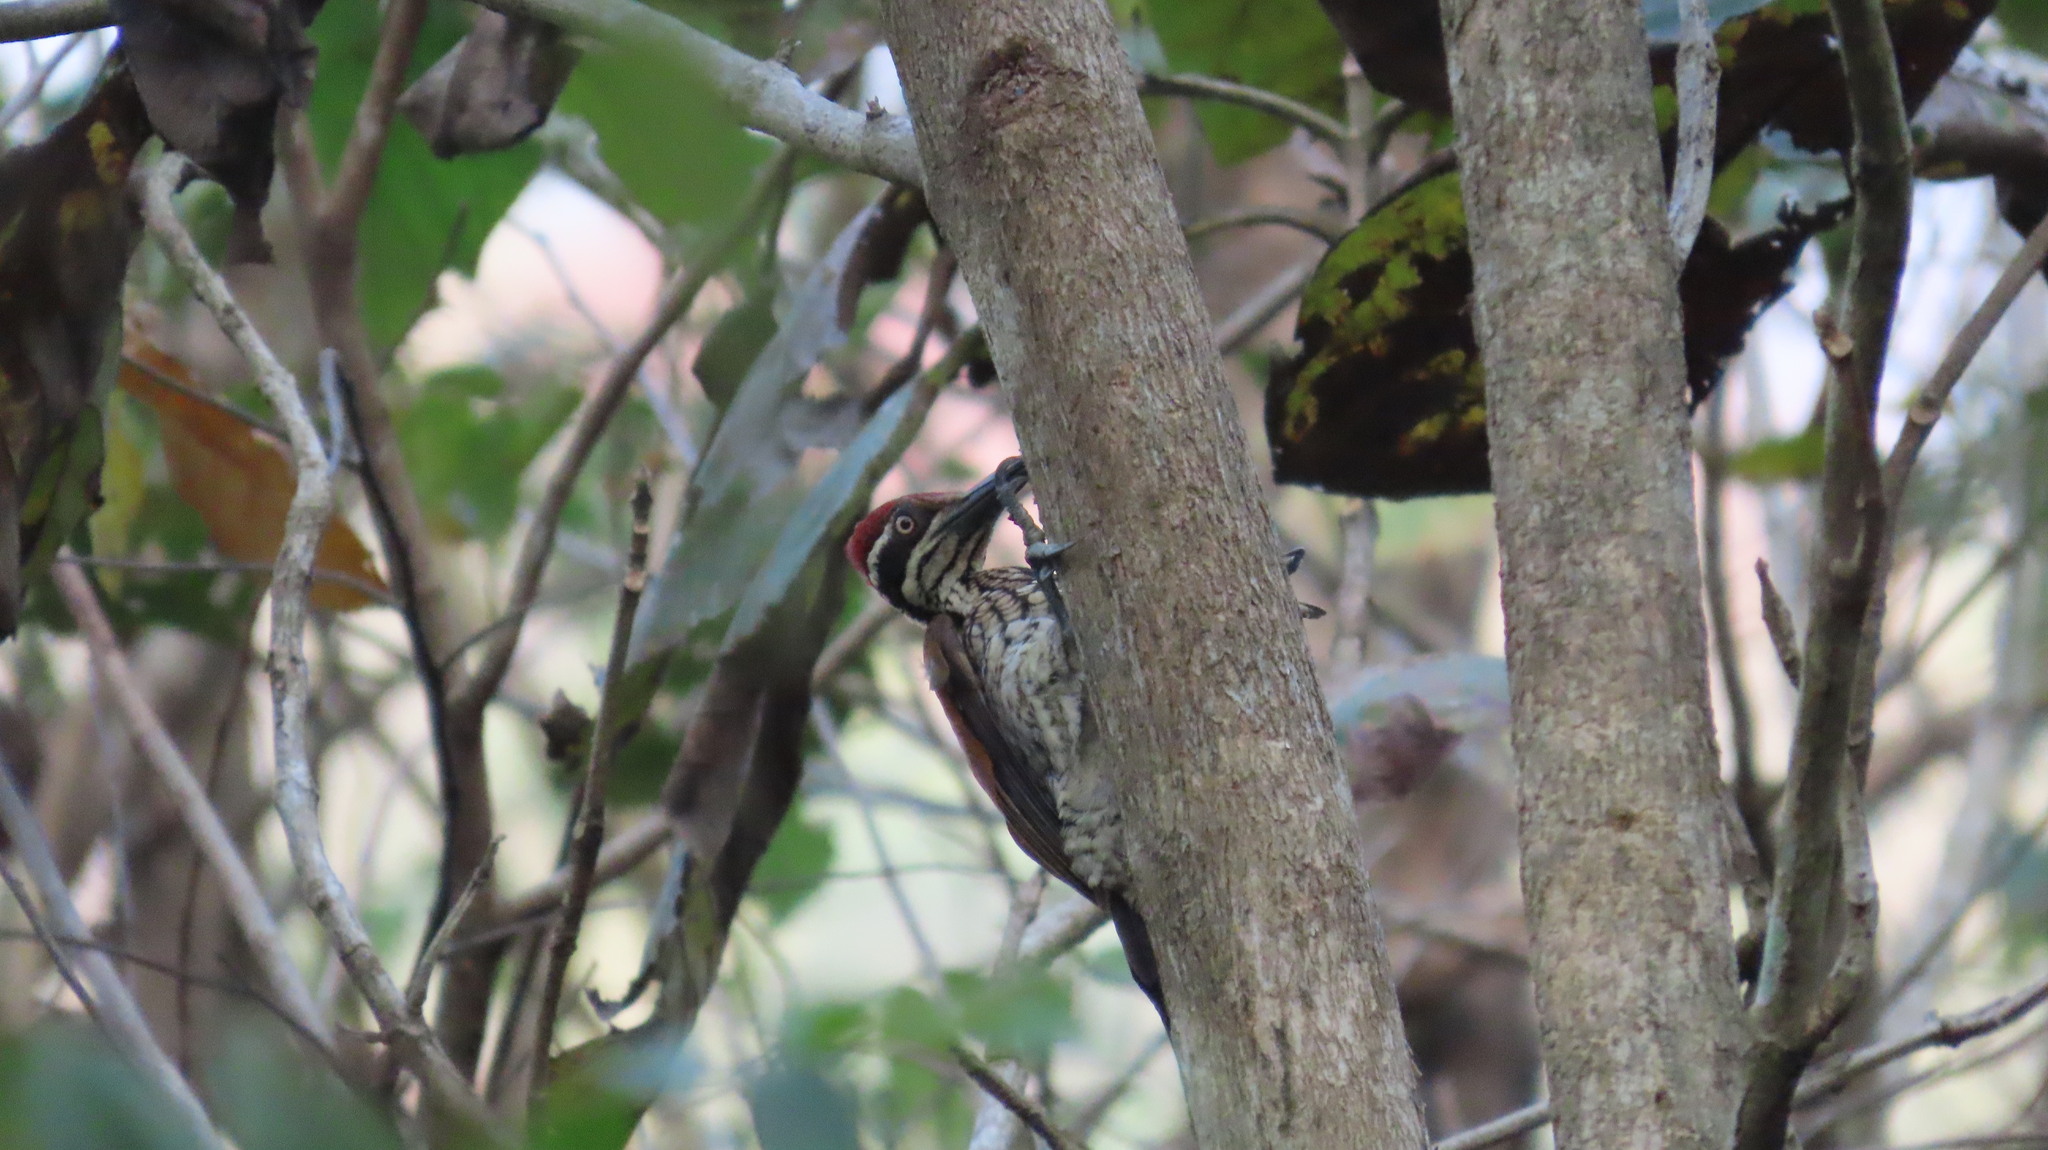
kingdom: Animalia
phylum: Chordata
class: Aves
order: Piciformes
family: Picidae
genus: Chrysocolaptes
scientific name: Chrysocolaptes socialis
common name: Malabar flameback
